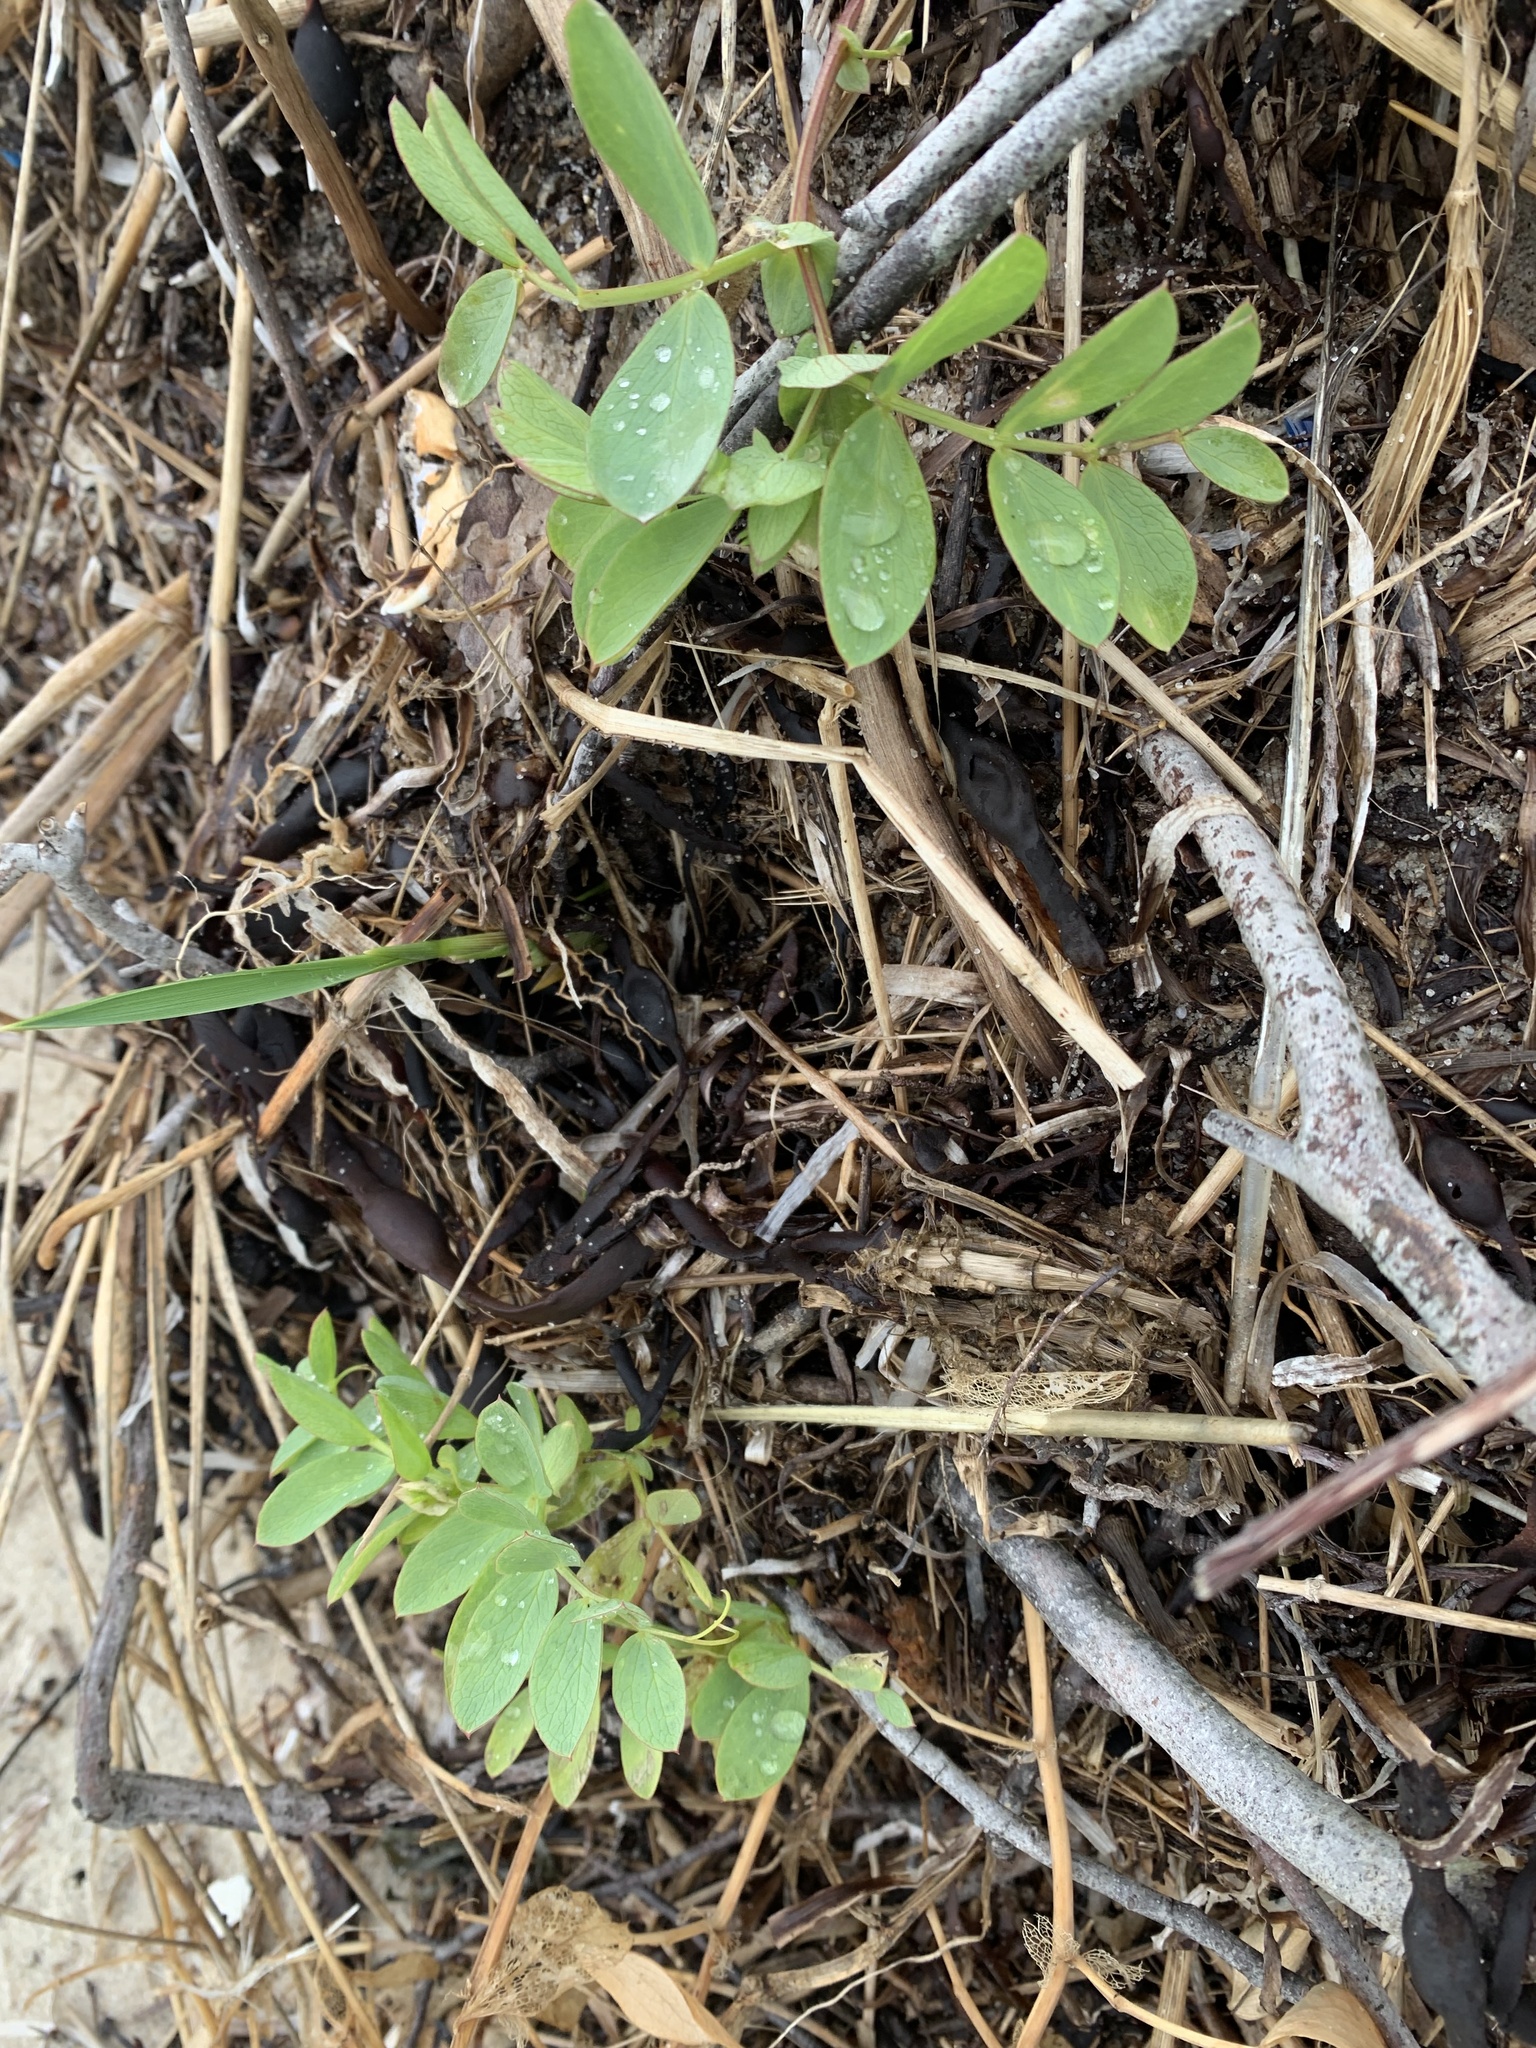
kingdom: Plantae
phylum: Tracheophyta
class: Magnoliopsida
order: Fabales
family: Fabaceae
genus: Lathyrus
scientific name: Lathyrus japonicus
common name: Sea pea
